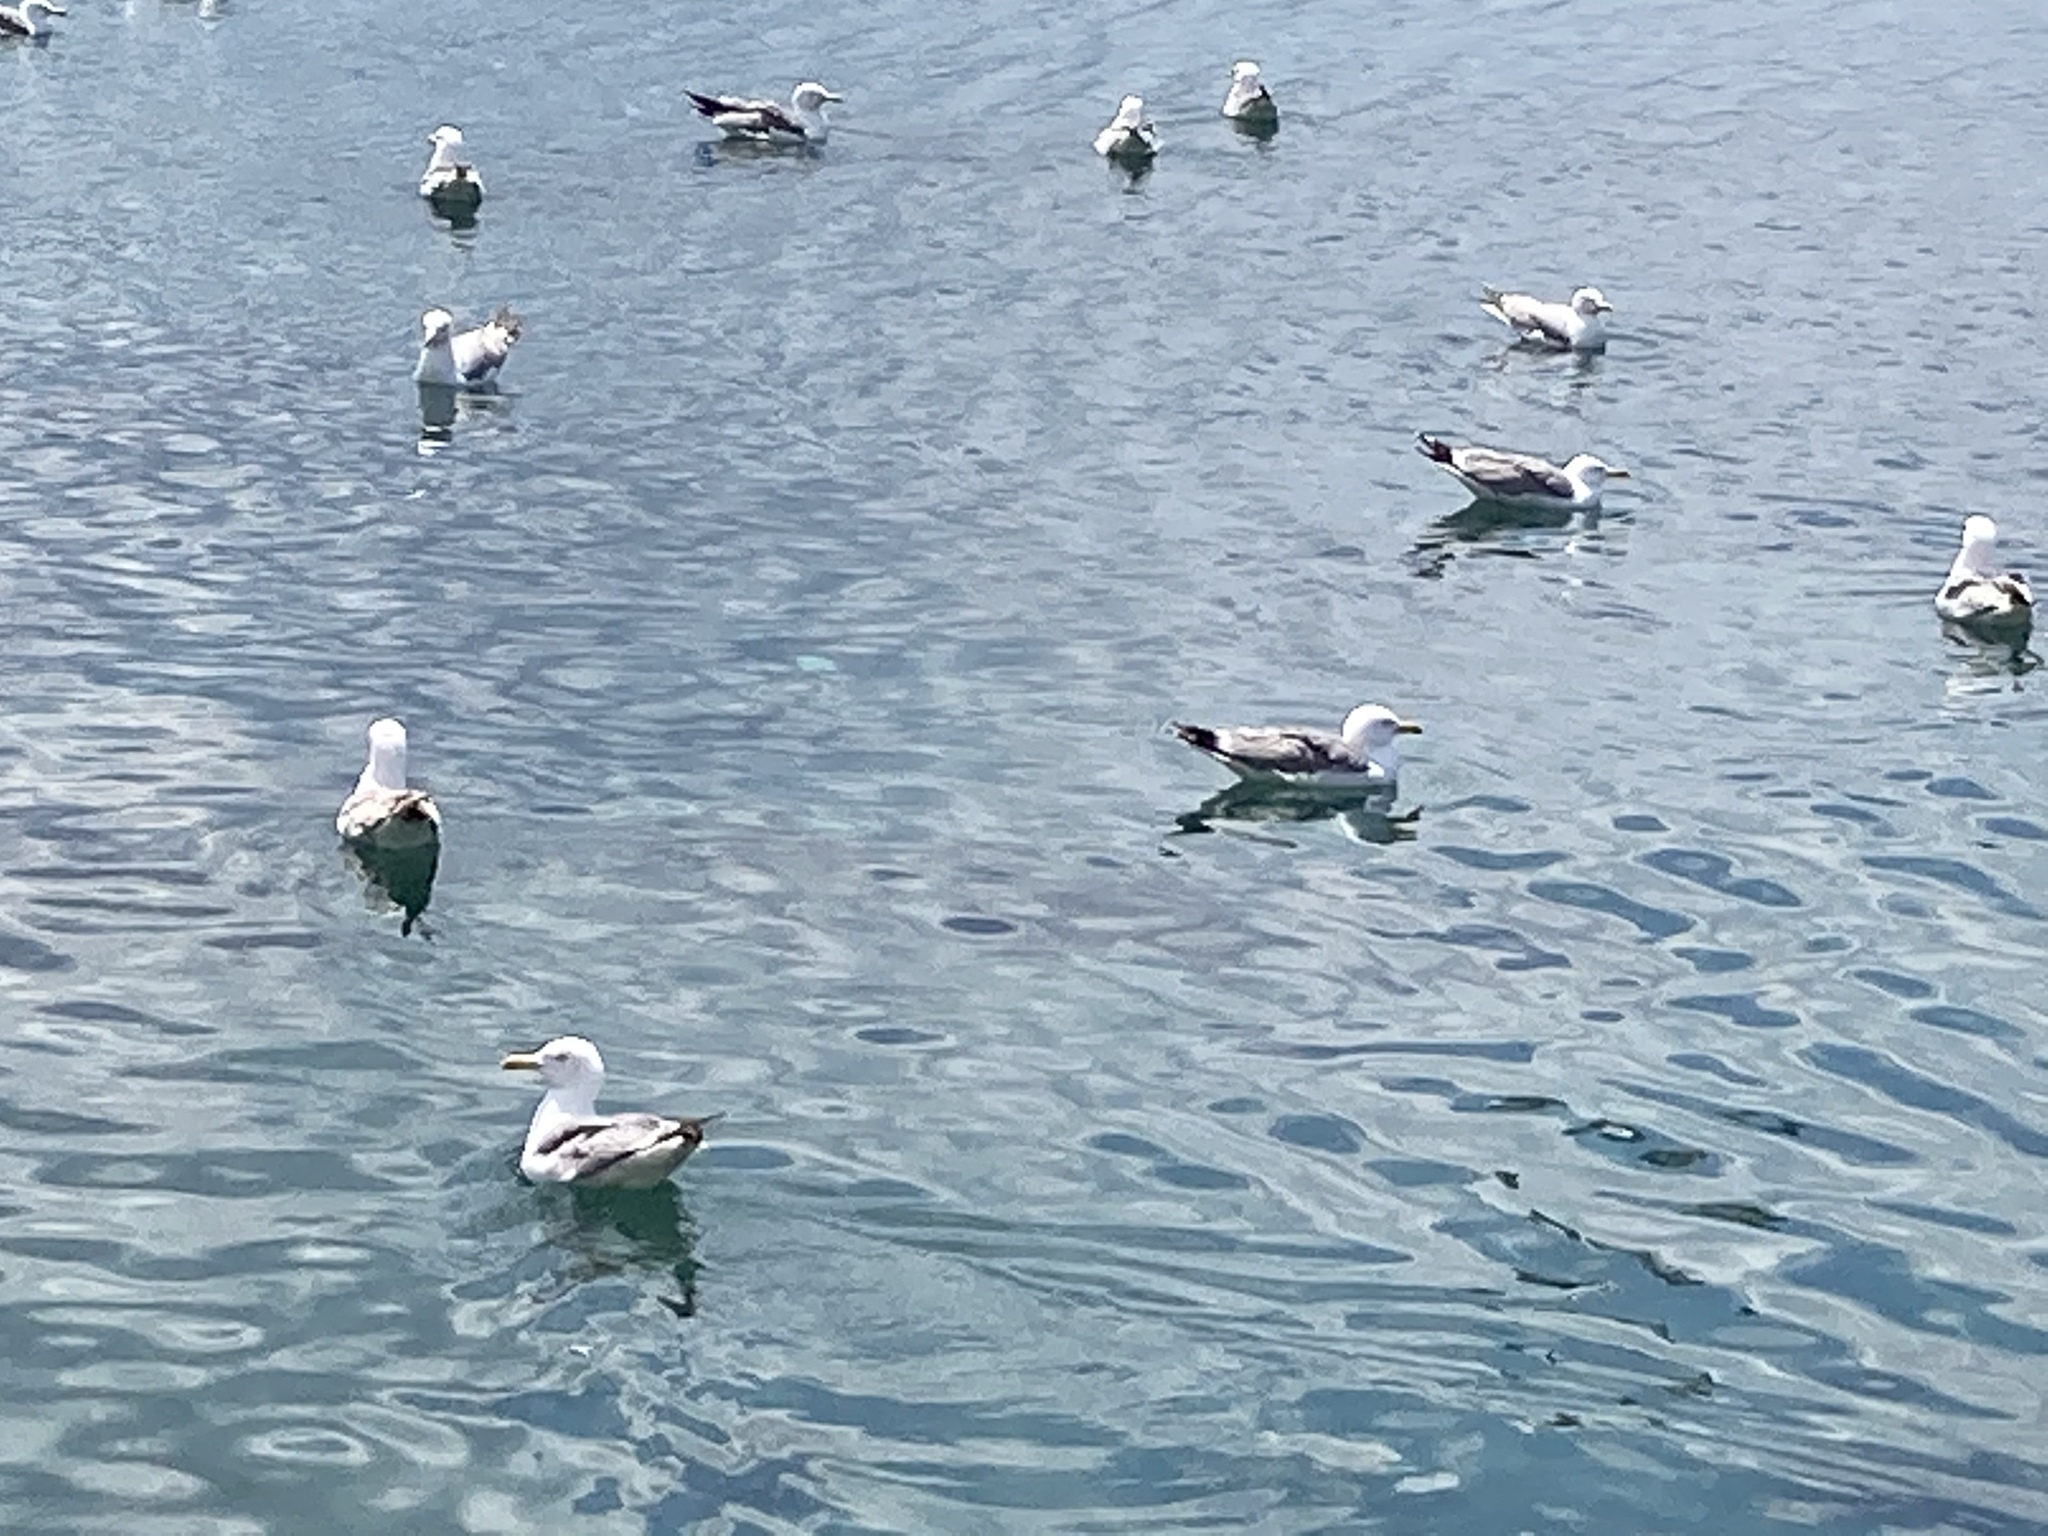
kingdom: Animalia
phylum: Chordata
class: Aves
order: Charadriiformes
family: Laridae
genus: Larus
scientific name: Larus michahellis
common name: Yellow-legged gull
